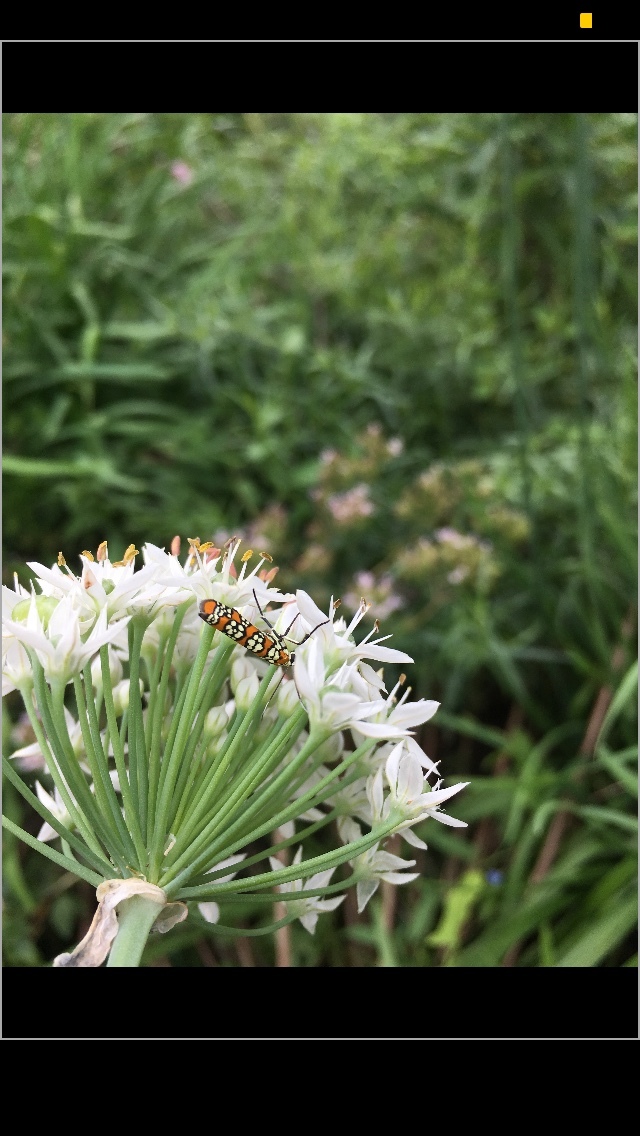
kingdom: Animalia
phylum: Arthropoda
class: Insecta
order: Lepidoptera
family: Attevidae
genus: Atteva
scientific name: Atteva punctella
